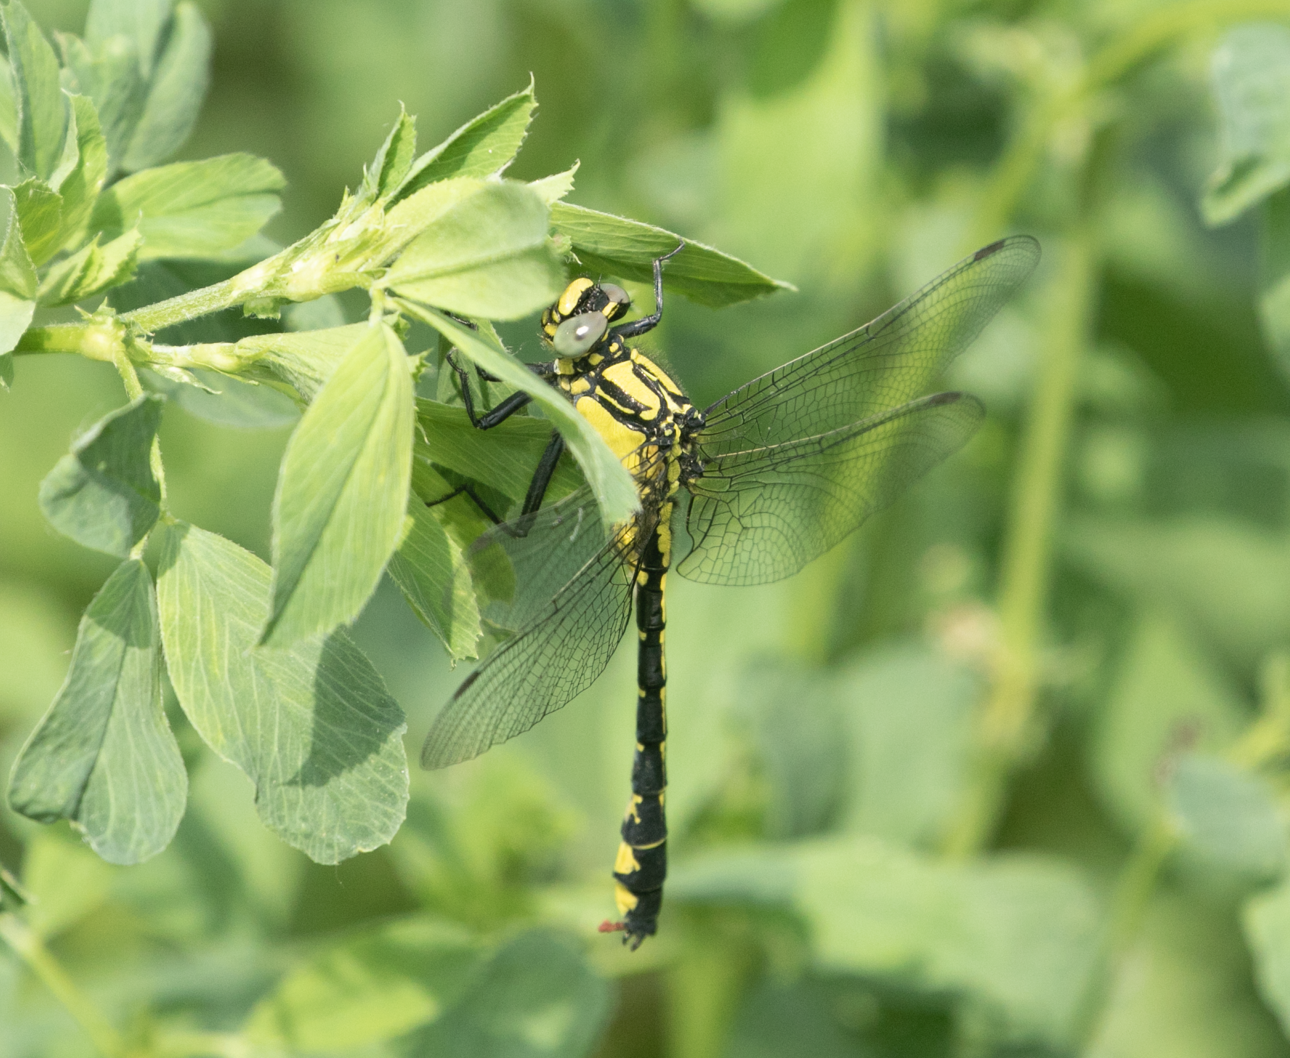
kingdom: Animalia
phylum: Arthropoda
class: Insecta
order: Odonata
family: Gomphidae
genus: Gomphus
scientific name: Gomphus vulgatissimus
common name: Club-tailed dragonfly
